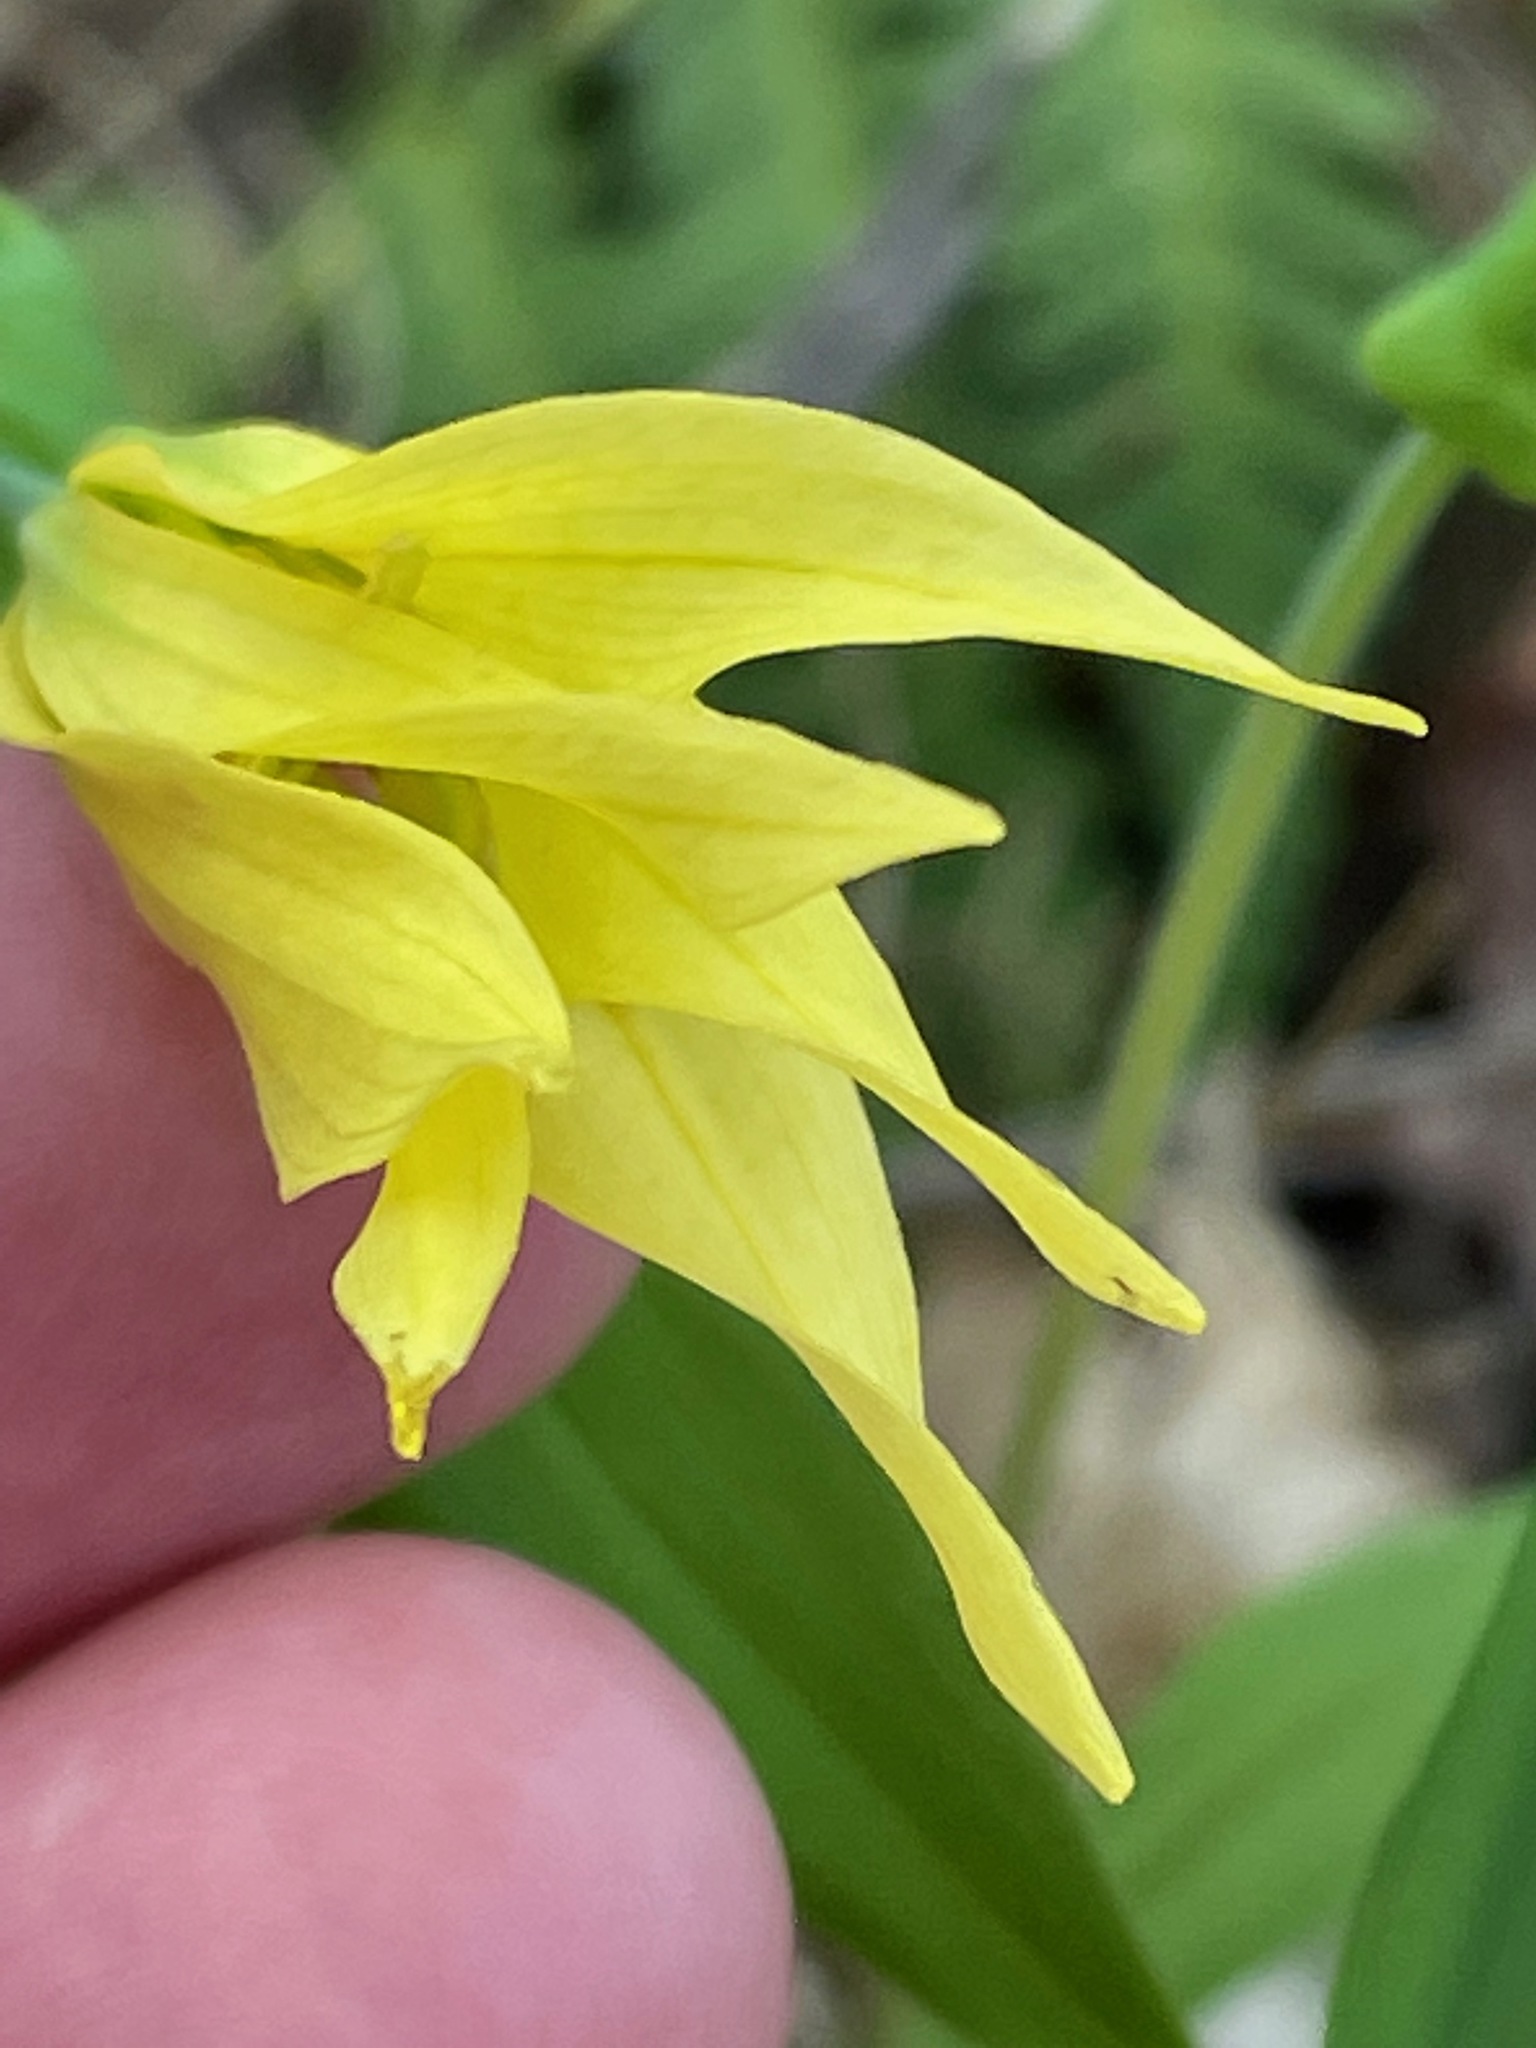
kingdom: Plantae
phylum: Tracheophyta
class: Liliopsida
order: Liliales
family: Colchicaceae
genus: Uvularia
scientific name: Uvularia grandiflora
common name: Bellwort
